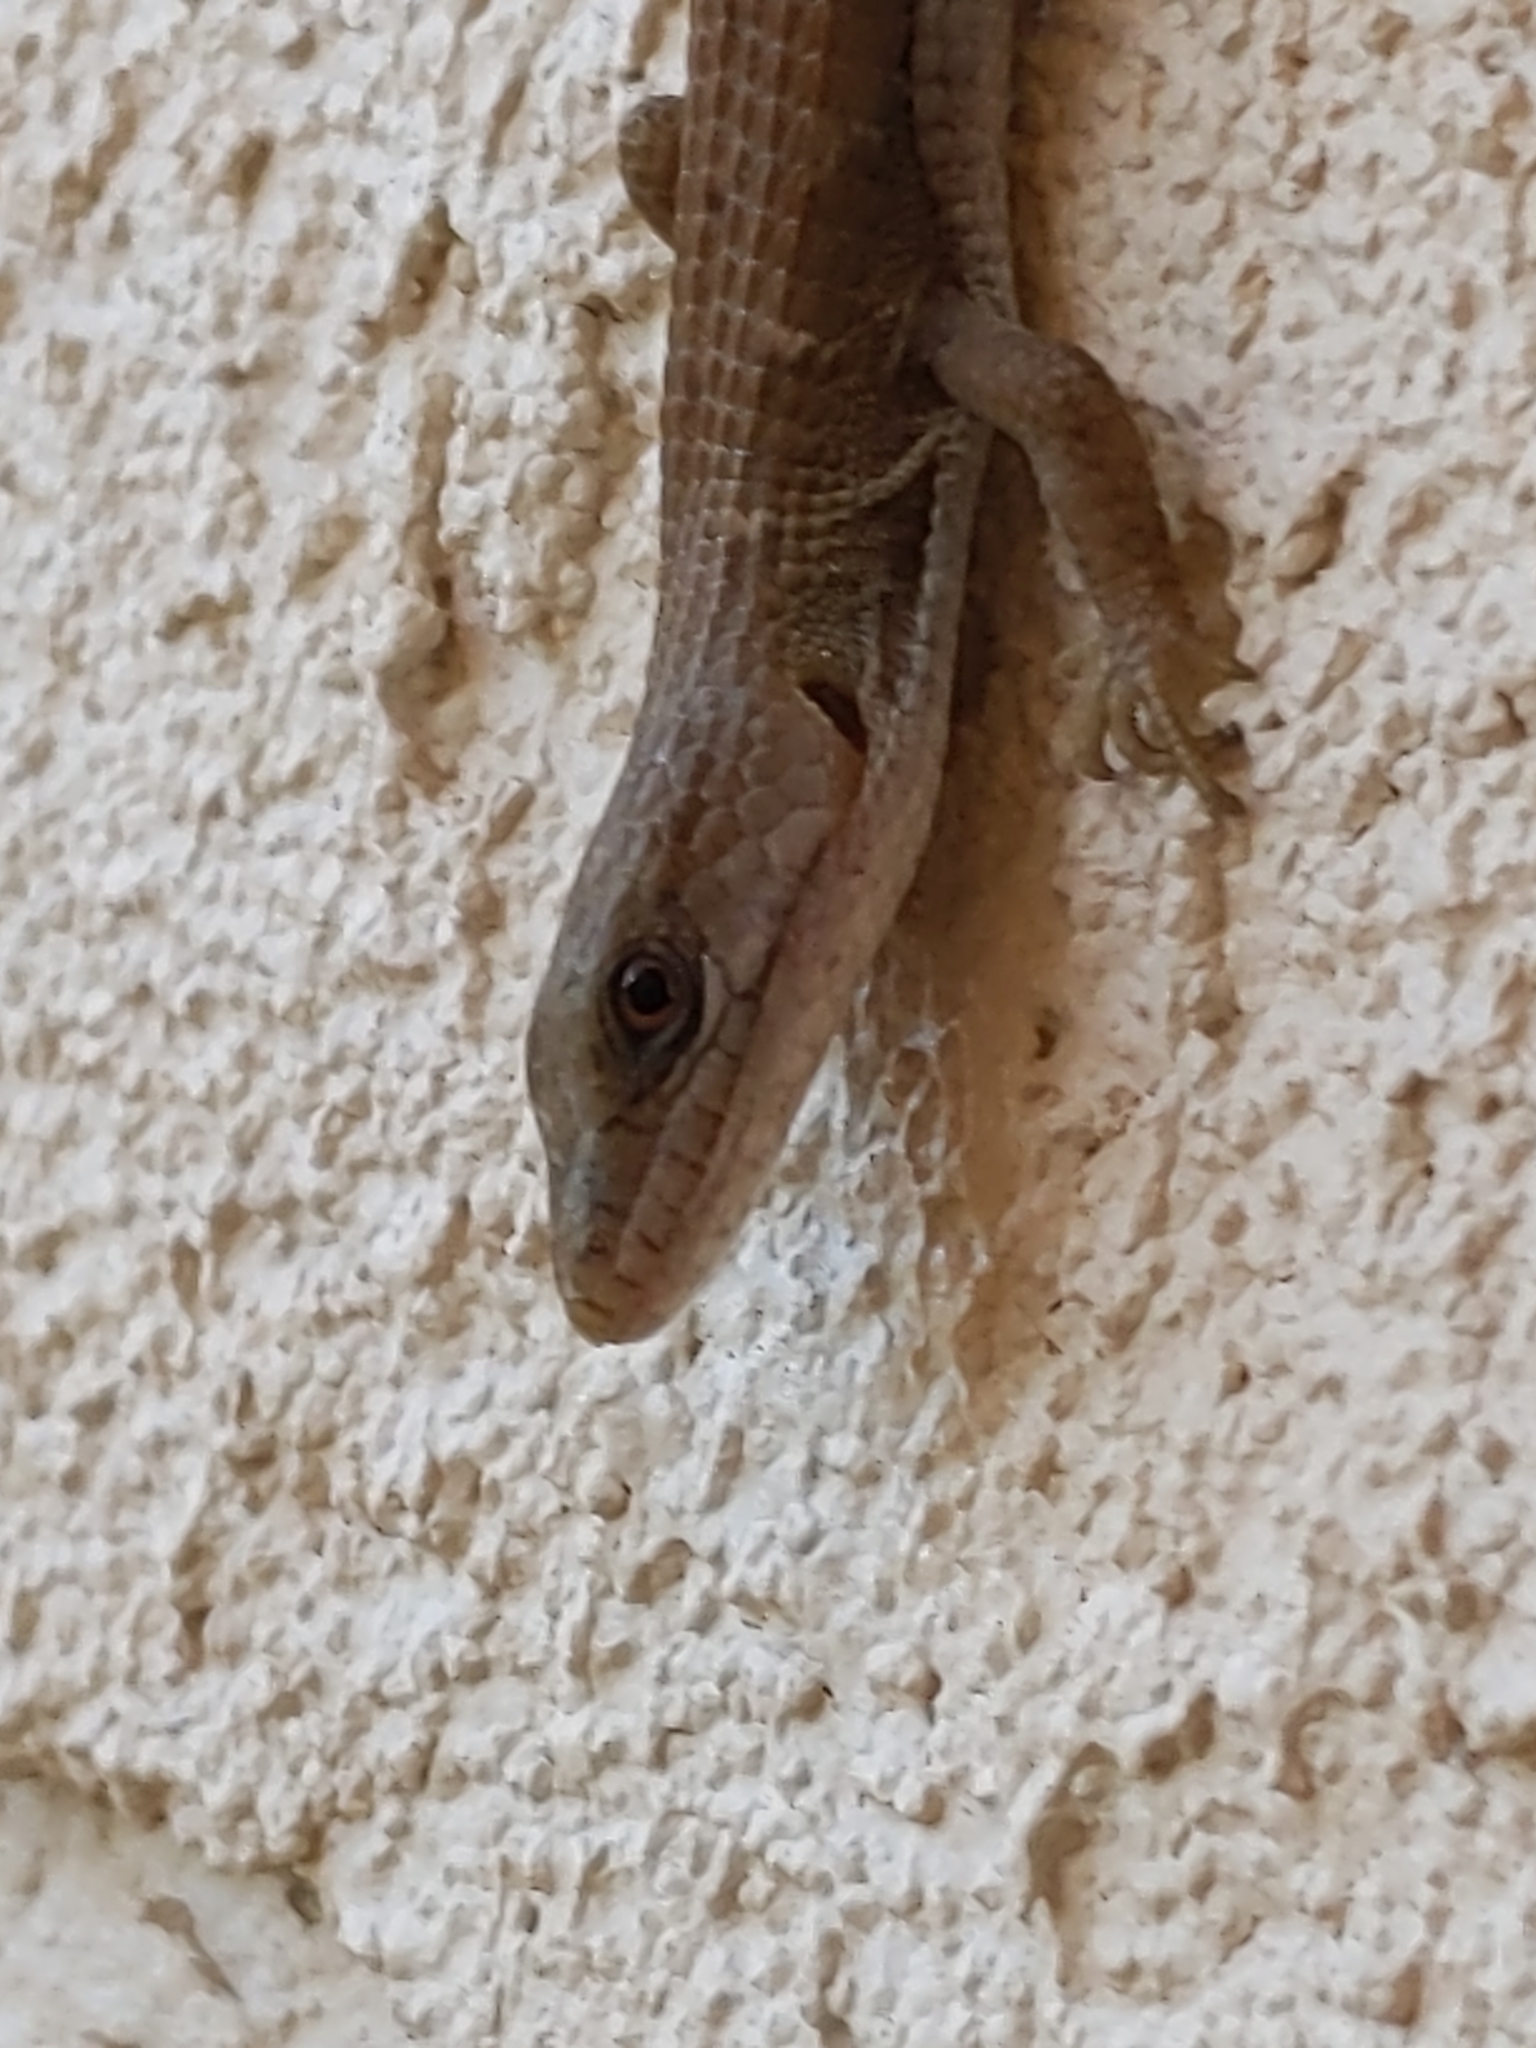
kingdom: Animalia
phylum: Chordata
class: Squamata
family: Anguidae
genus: Elgaria
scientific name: Elgaria multicarinata
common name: Southern alligator lizard
